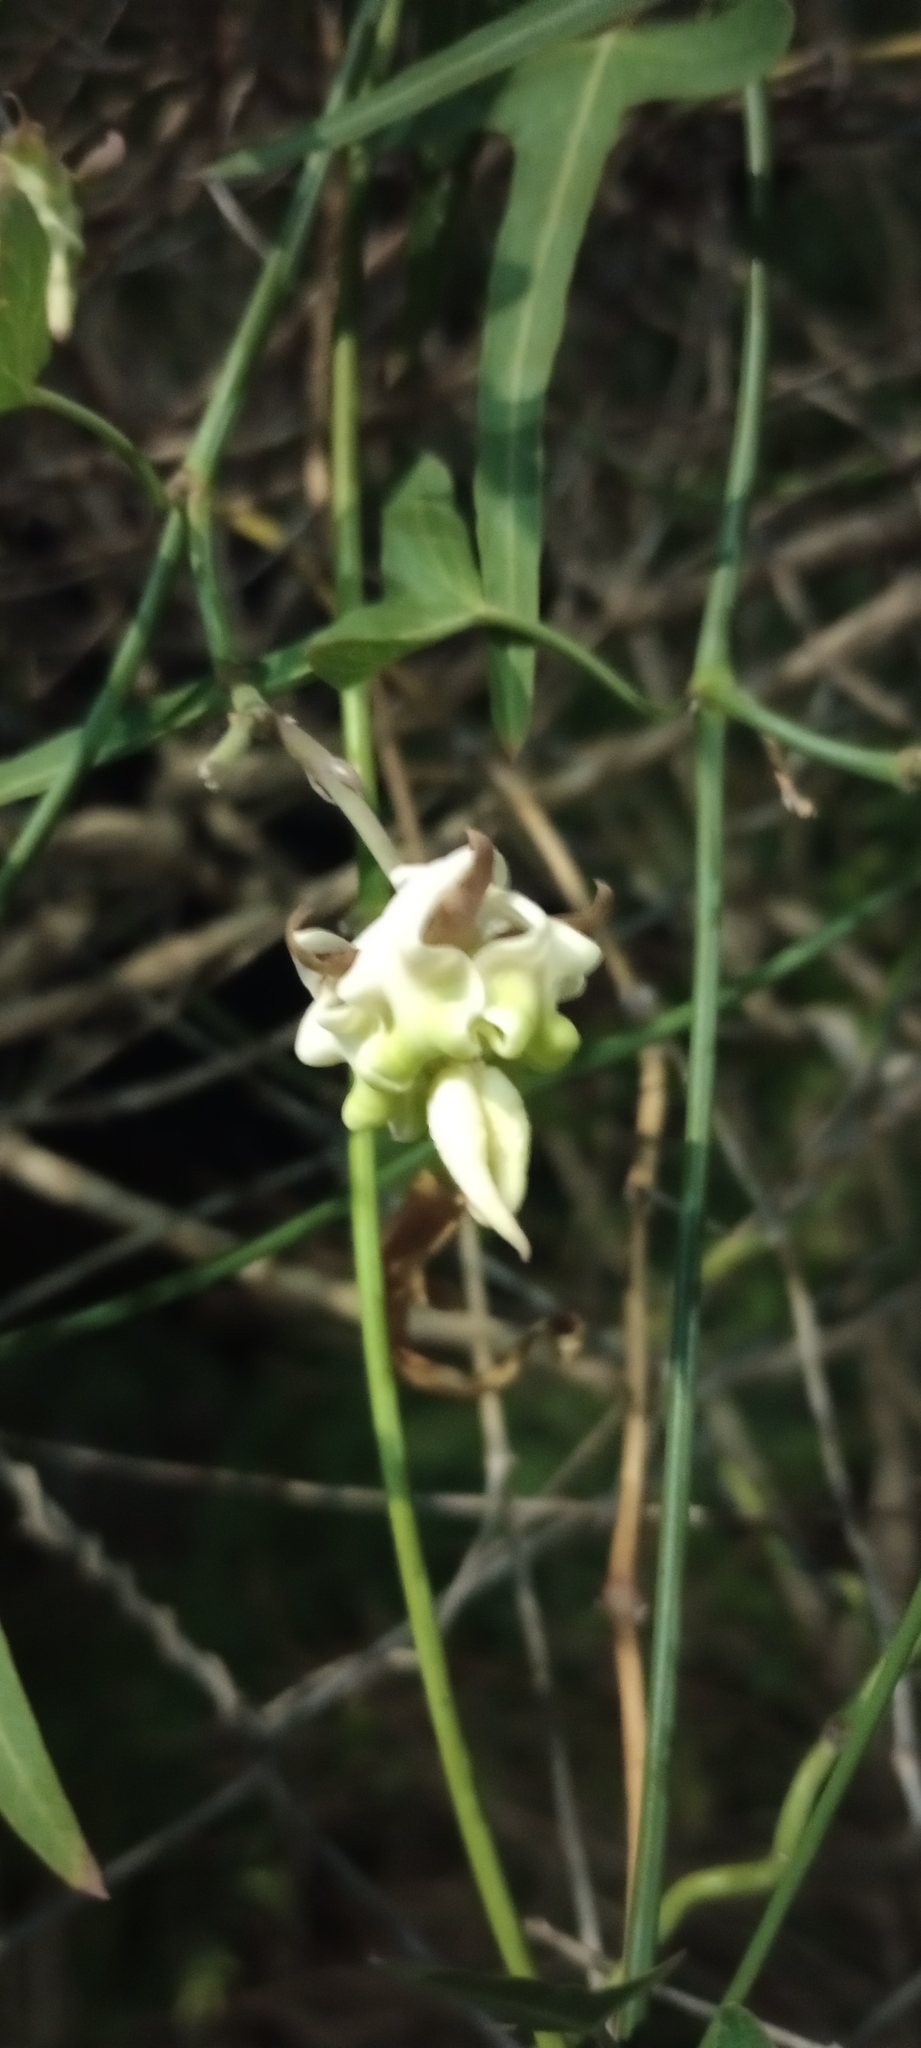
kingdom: Plantae
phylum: Tracheophyta
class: Magnoliopsida
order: Gentianales
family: Apocynaceae
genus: Araujia
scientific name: Araujia angustifolia
